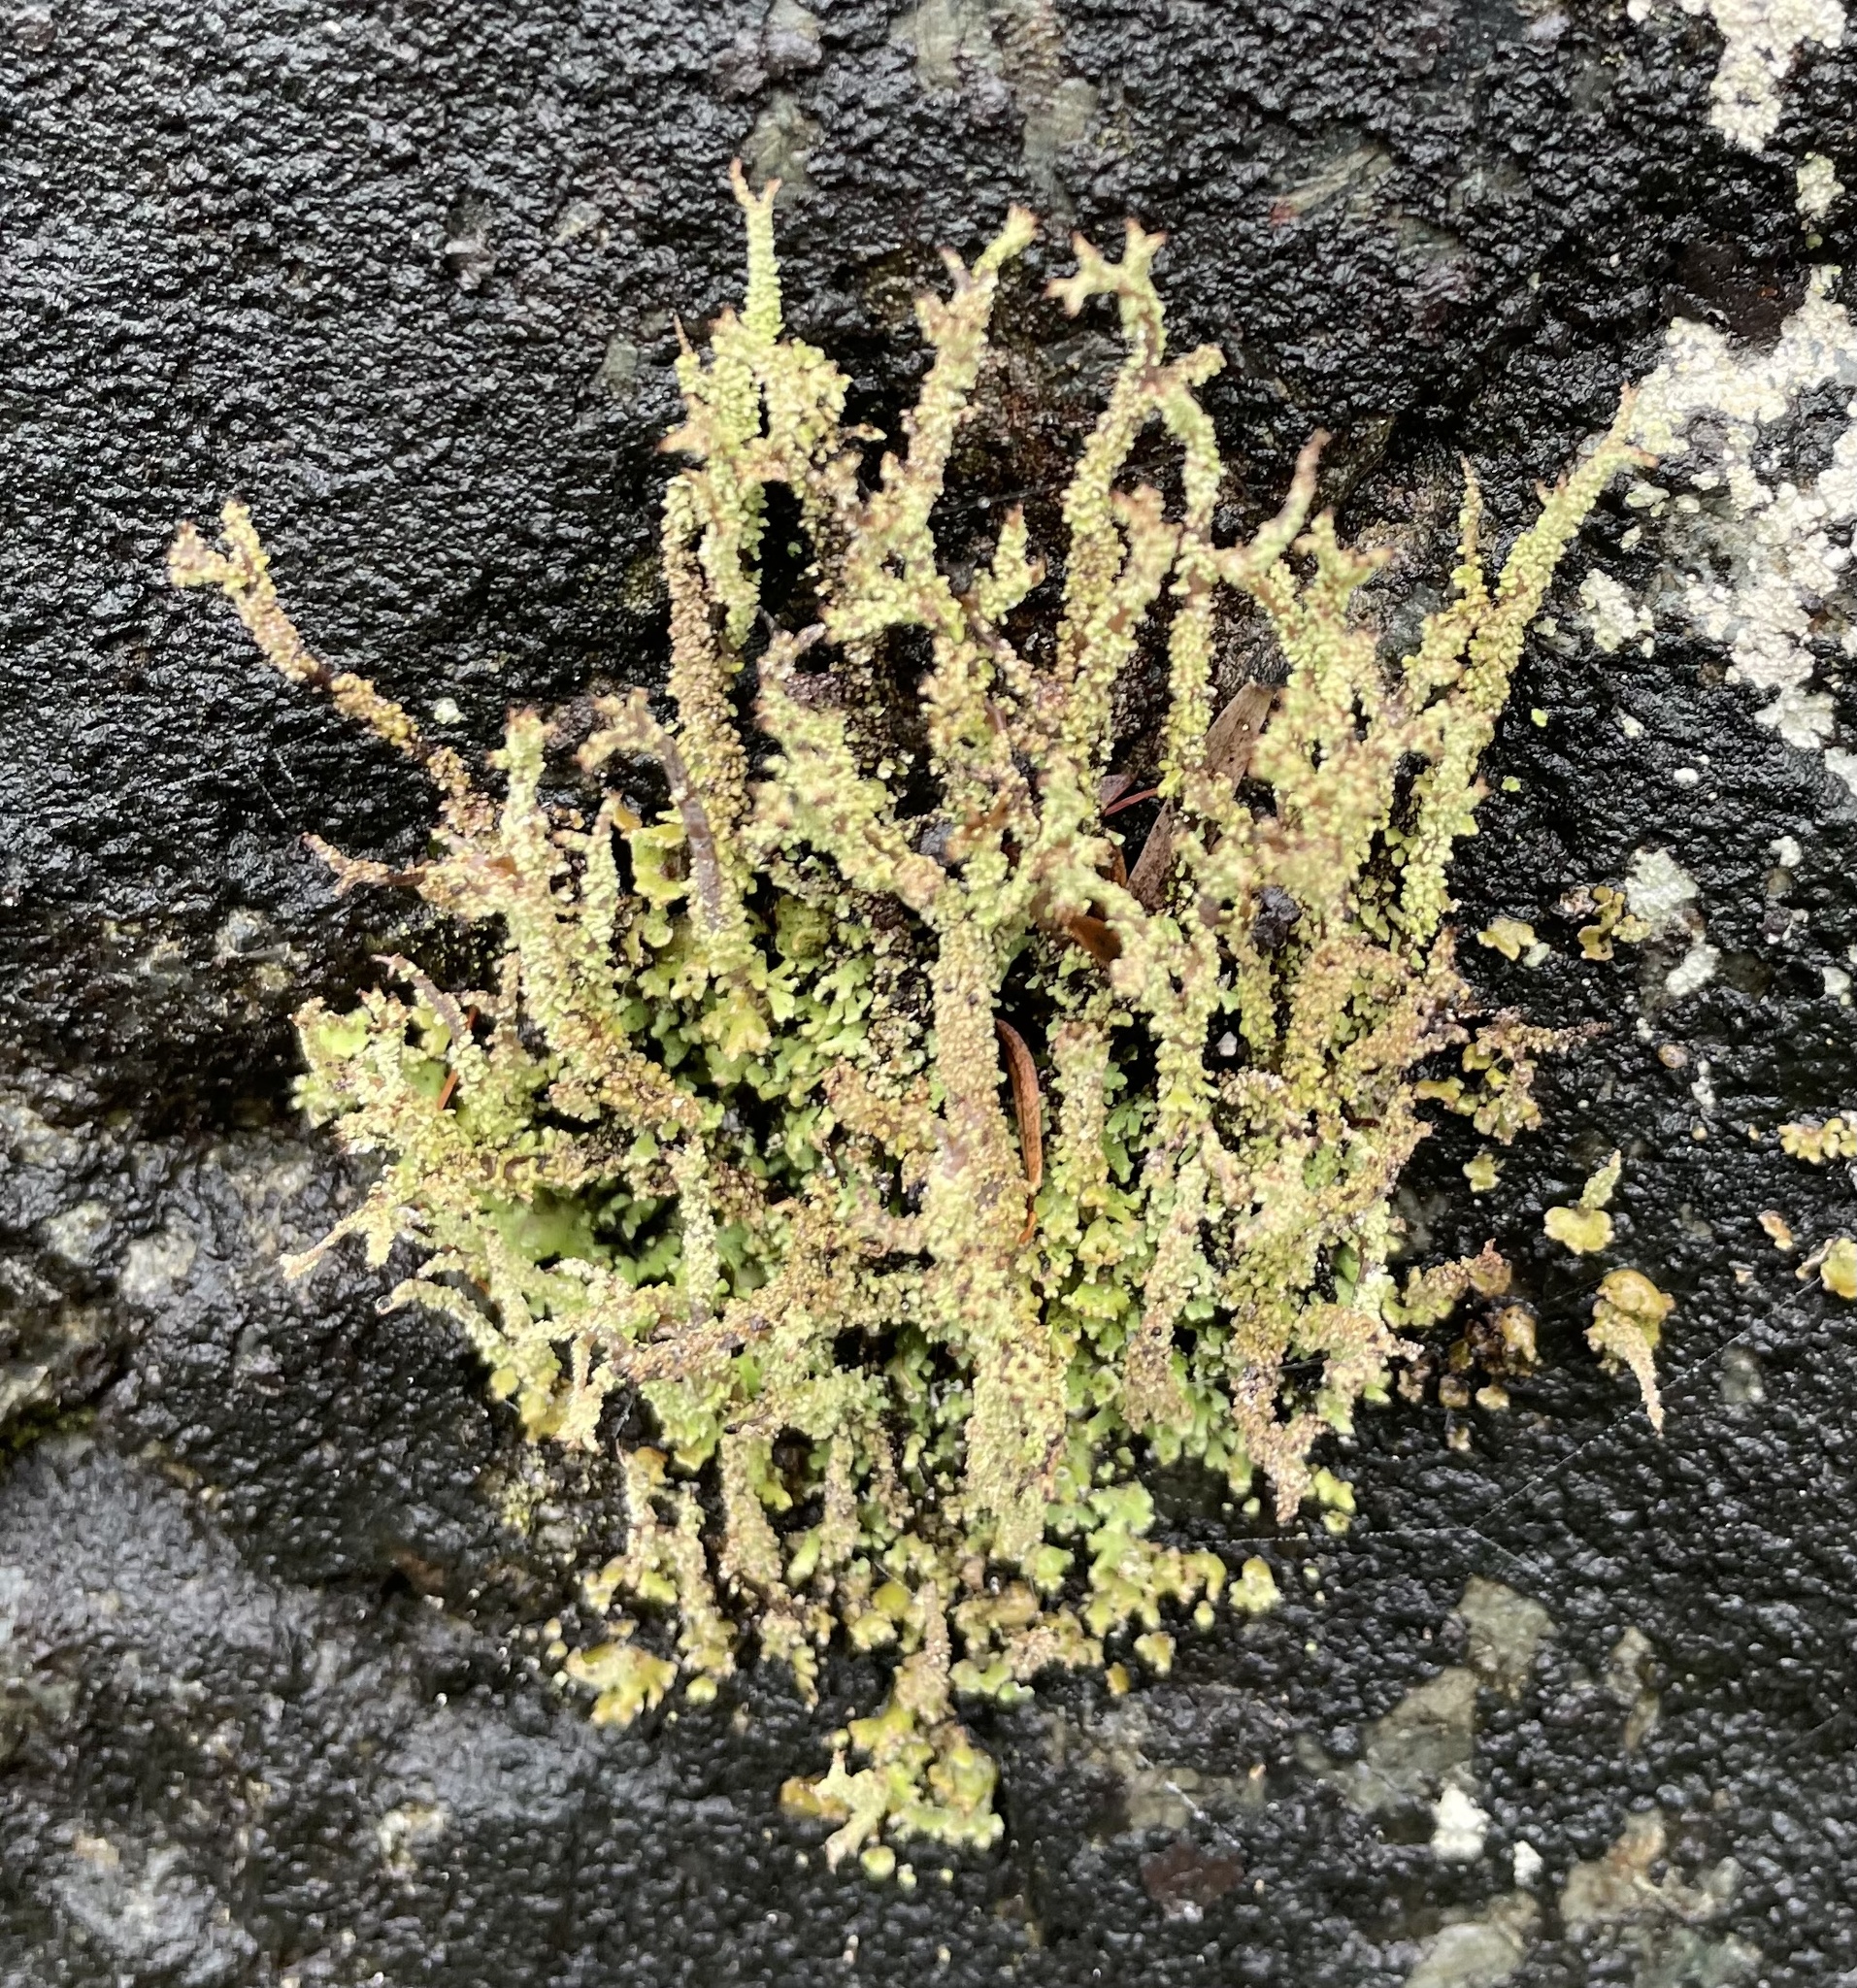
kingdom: Fungi
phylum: Ascomycota
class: Lecanoromycetes
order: Lecanorales
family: Cladoniaceae
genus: Cladonia
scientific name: Cladonia darwinii
